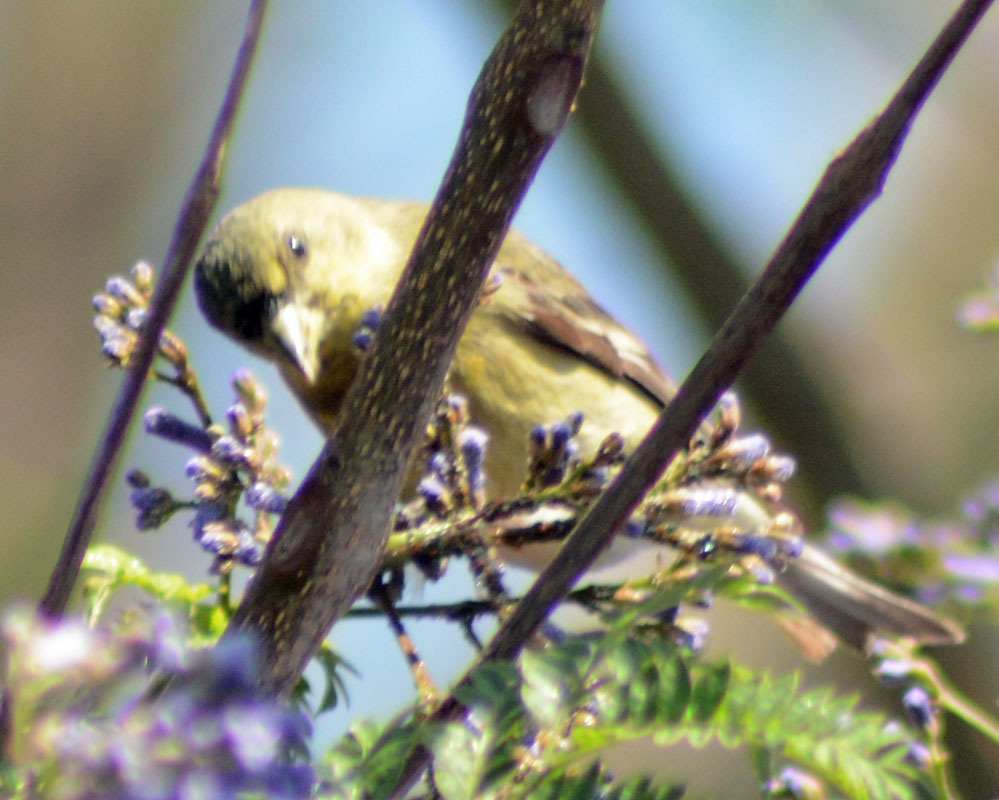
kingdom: Animalia
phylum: Chordata
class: Aves
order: Passeriformes
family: Fringillidae
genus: Spinus
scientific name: Spinus psaltria
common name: Lesser goldfinch
